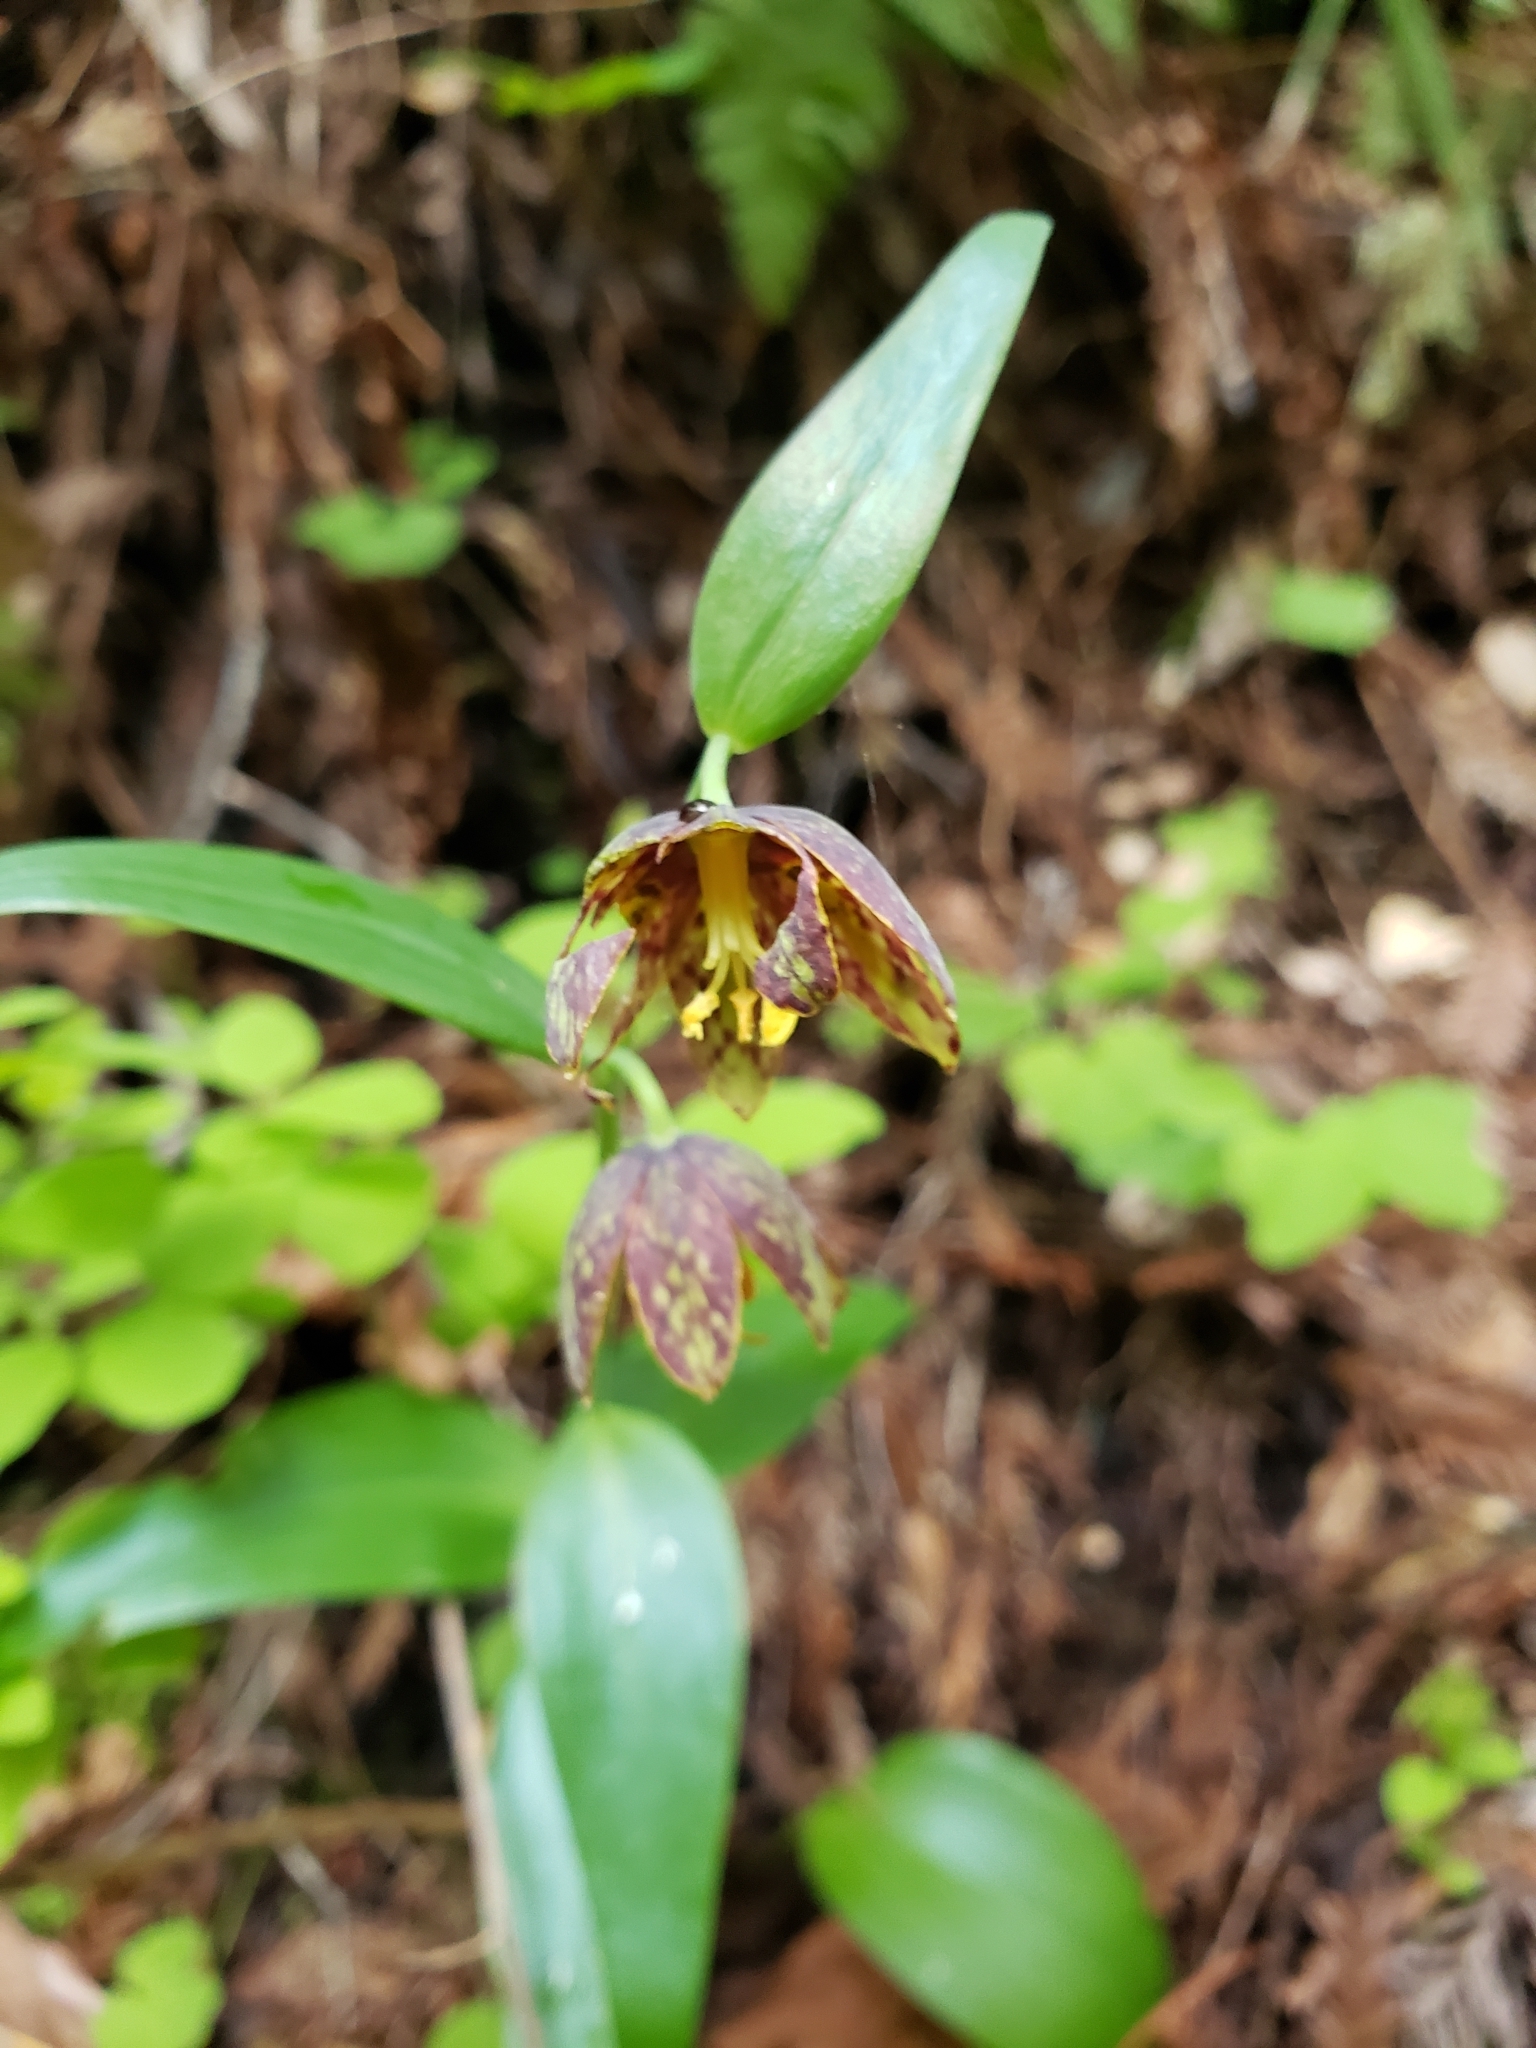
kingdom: Plantae
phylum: Tracheophyta
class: Liliopsida
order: Liliales
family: Liliaceae
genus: Fritillaria
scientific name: Fritillaria affinis
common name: Ojai fritillary
